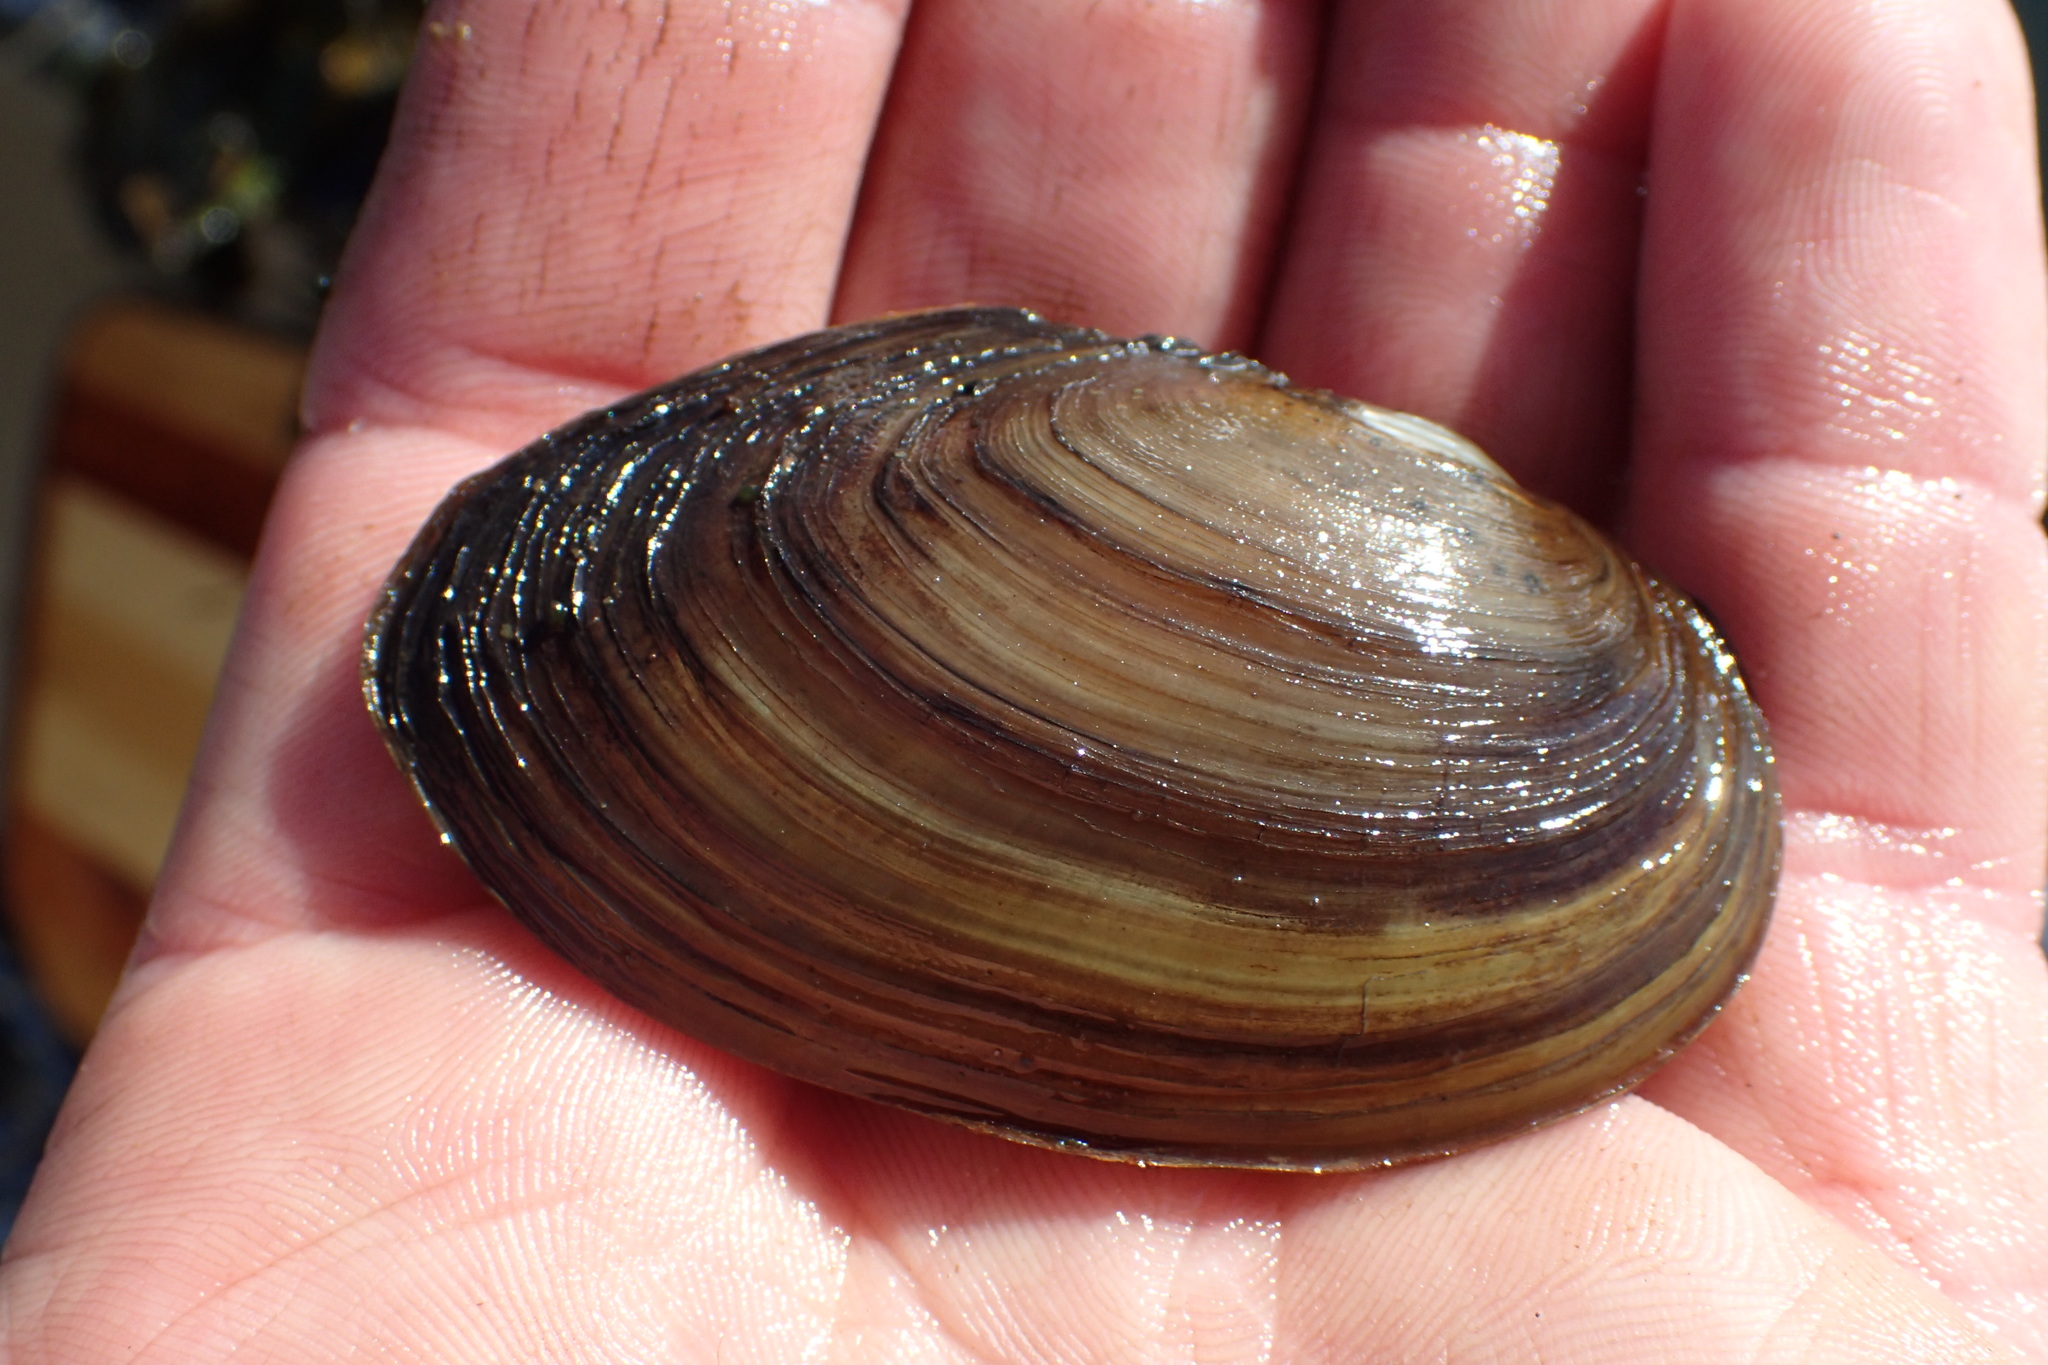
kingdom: Animalia
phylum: Mollusca
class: Bivalvia
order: Unionida
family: Unionidae
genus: Beringiana
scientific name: Beringiana beringiana
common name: Yukon floater
